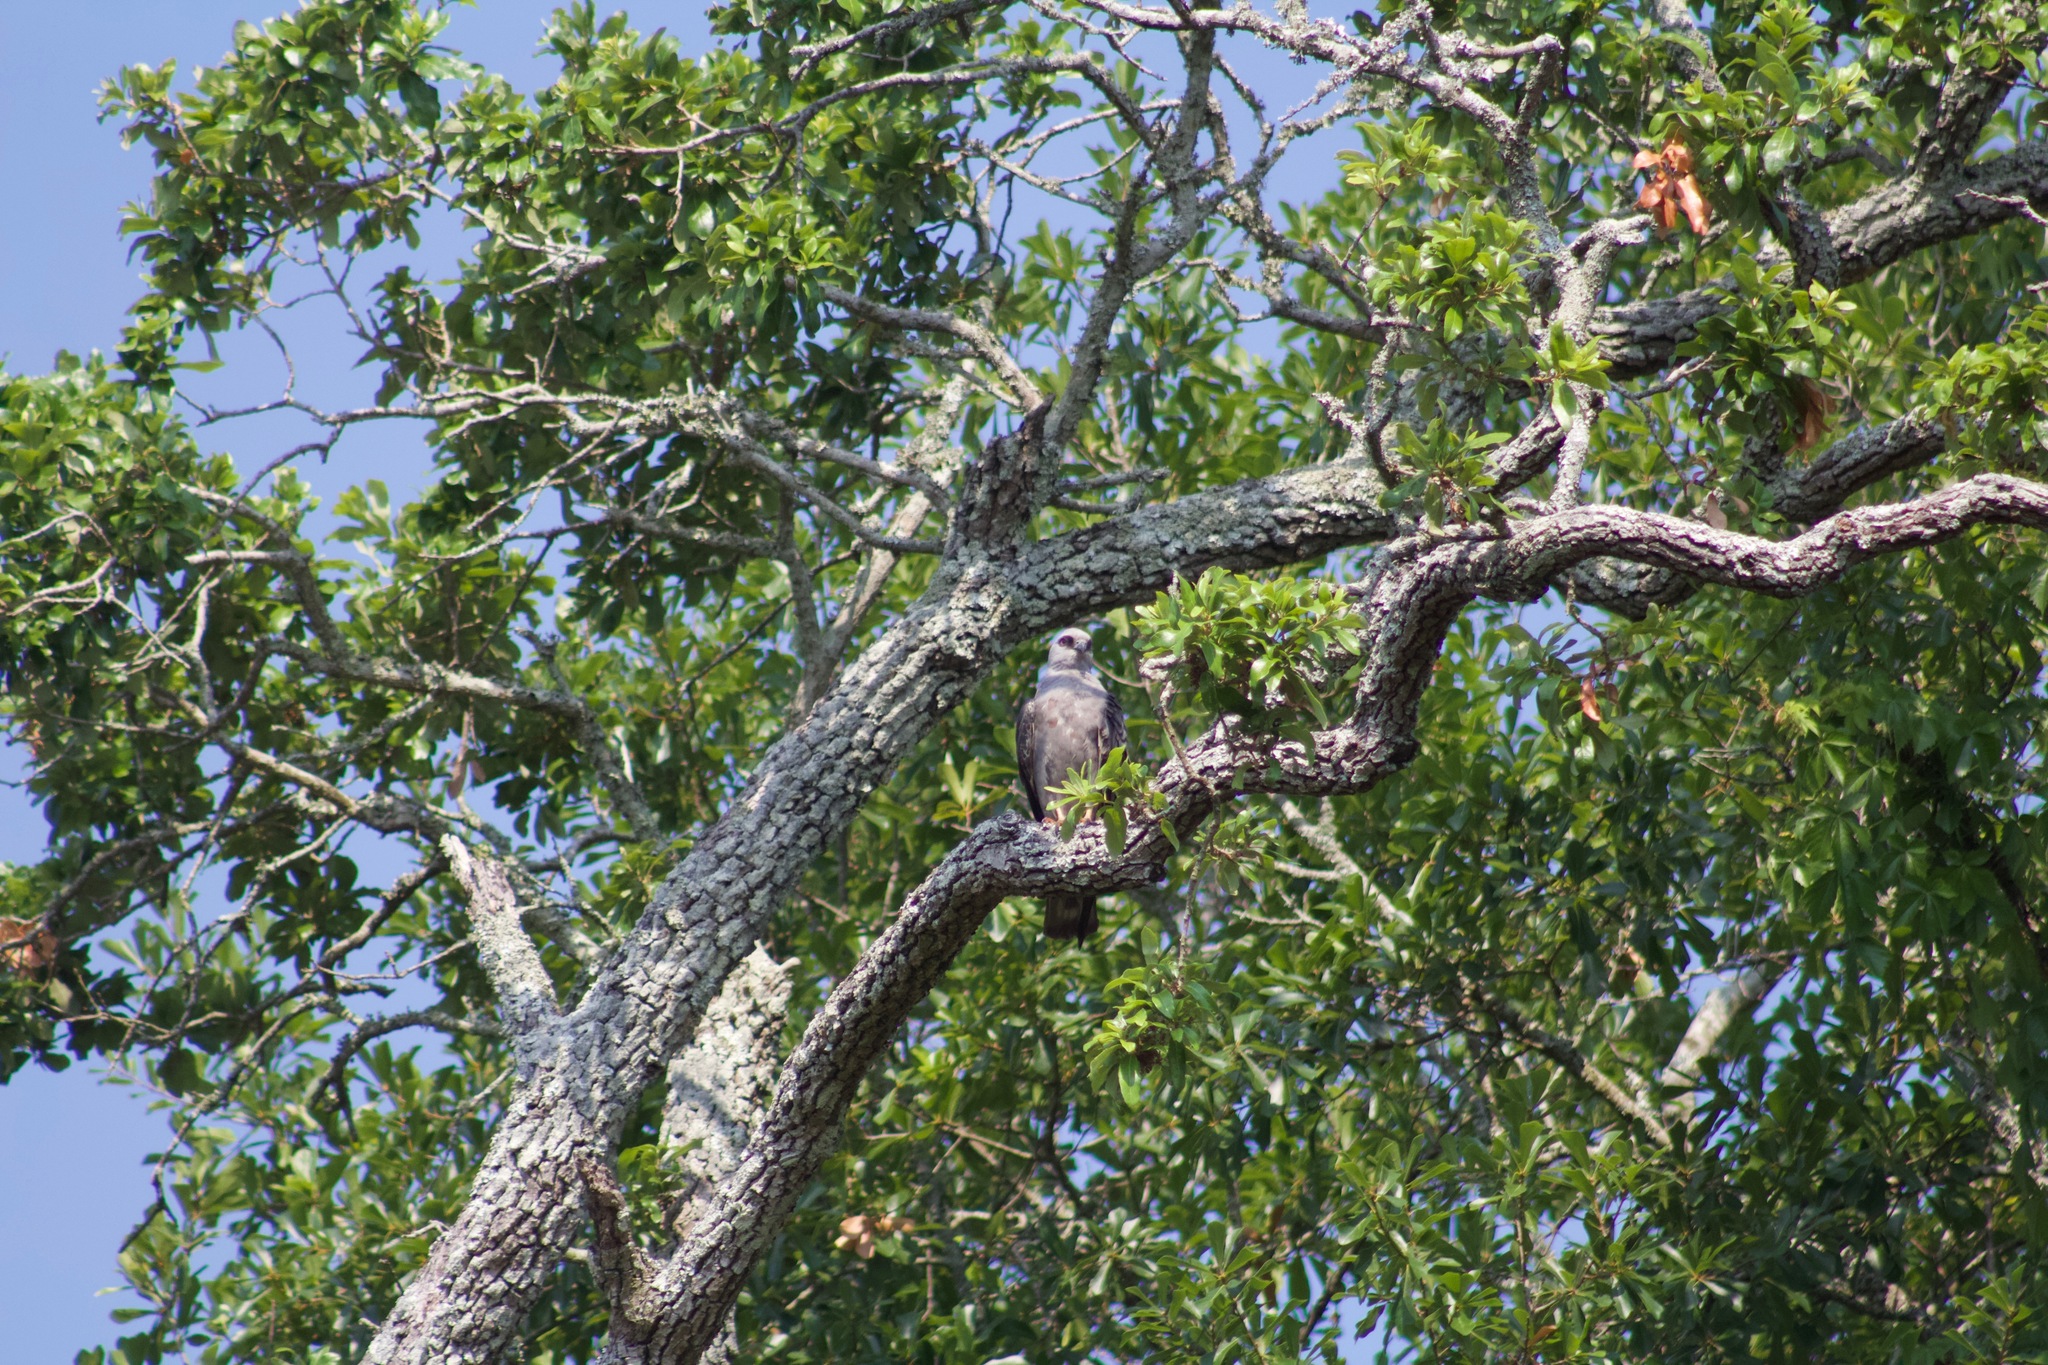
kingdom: Animalia
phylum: Chordata
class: Aves
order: Accipitriformes
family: Accipitridae
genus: Ictinia
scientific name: Ictinia mississippiensis
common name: Mississippi kite
